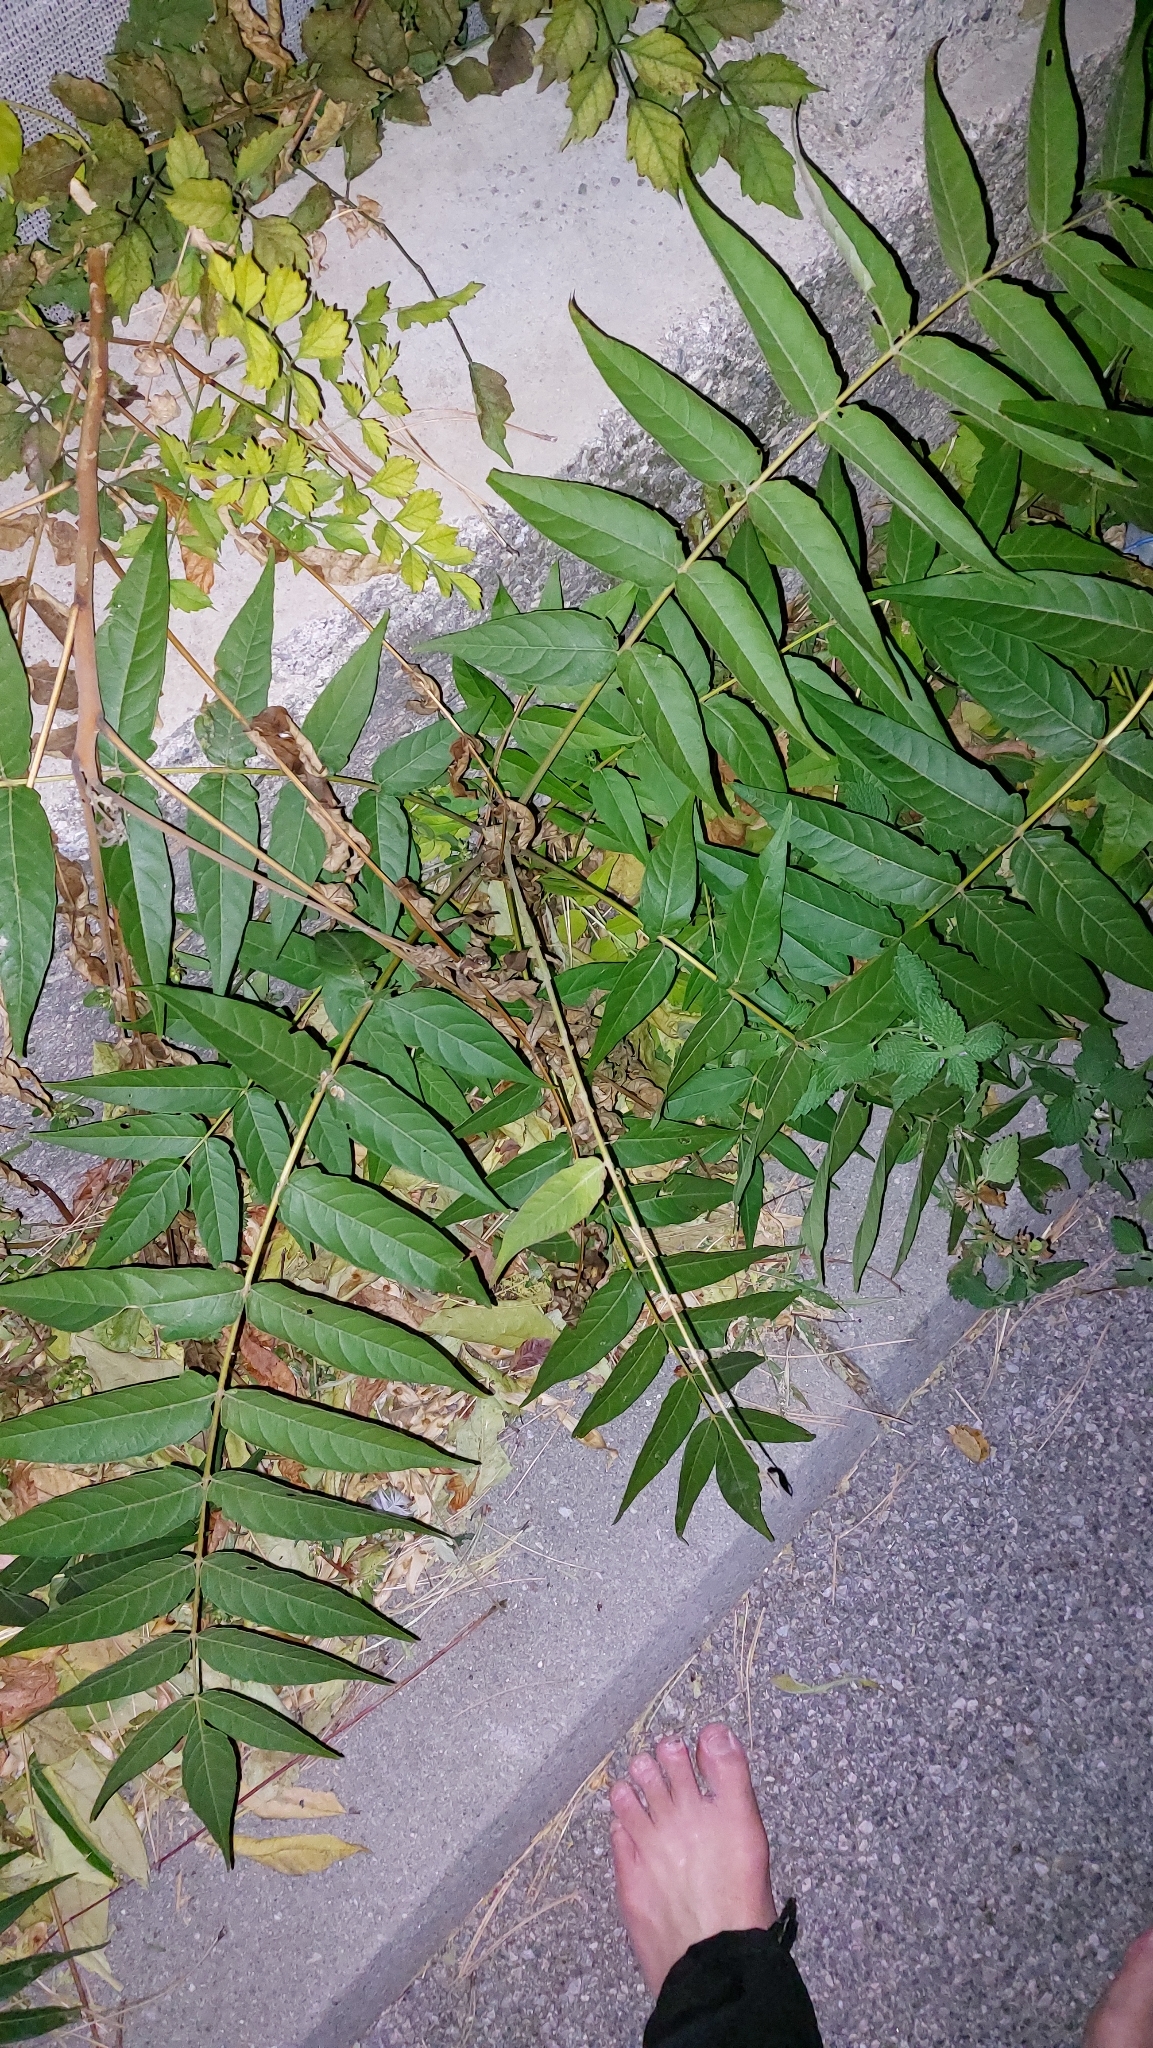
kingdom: Plantae
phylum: Tracheophyta
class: Magnoliopsida
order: Sapindales
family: Simaroubaceae
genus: Ailanthus
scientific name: Ailanthus altissima
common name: Tree-of-heaven
